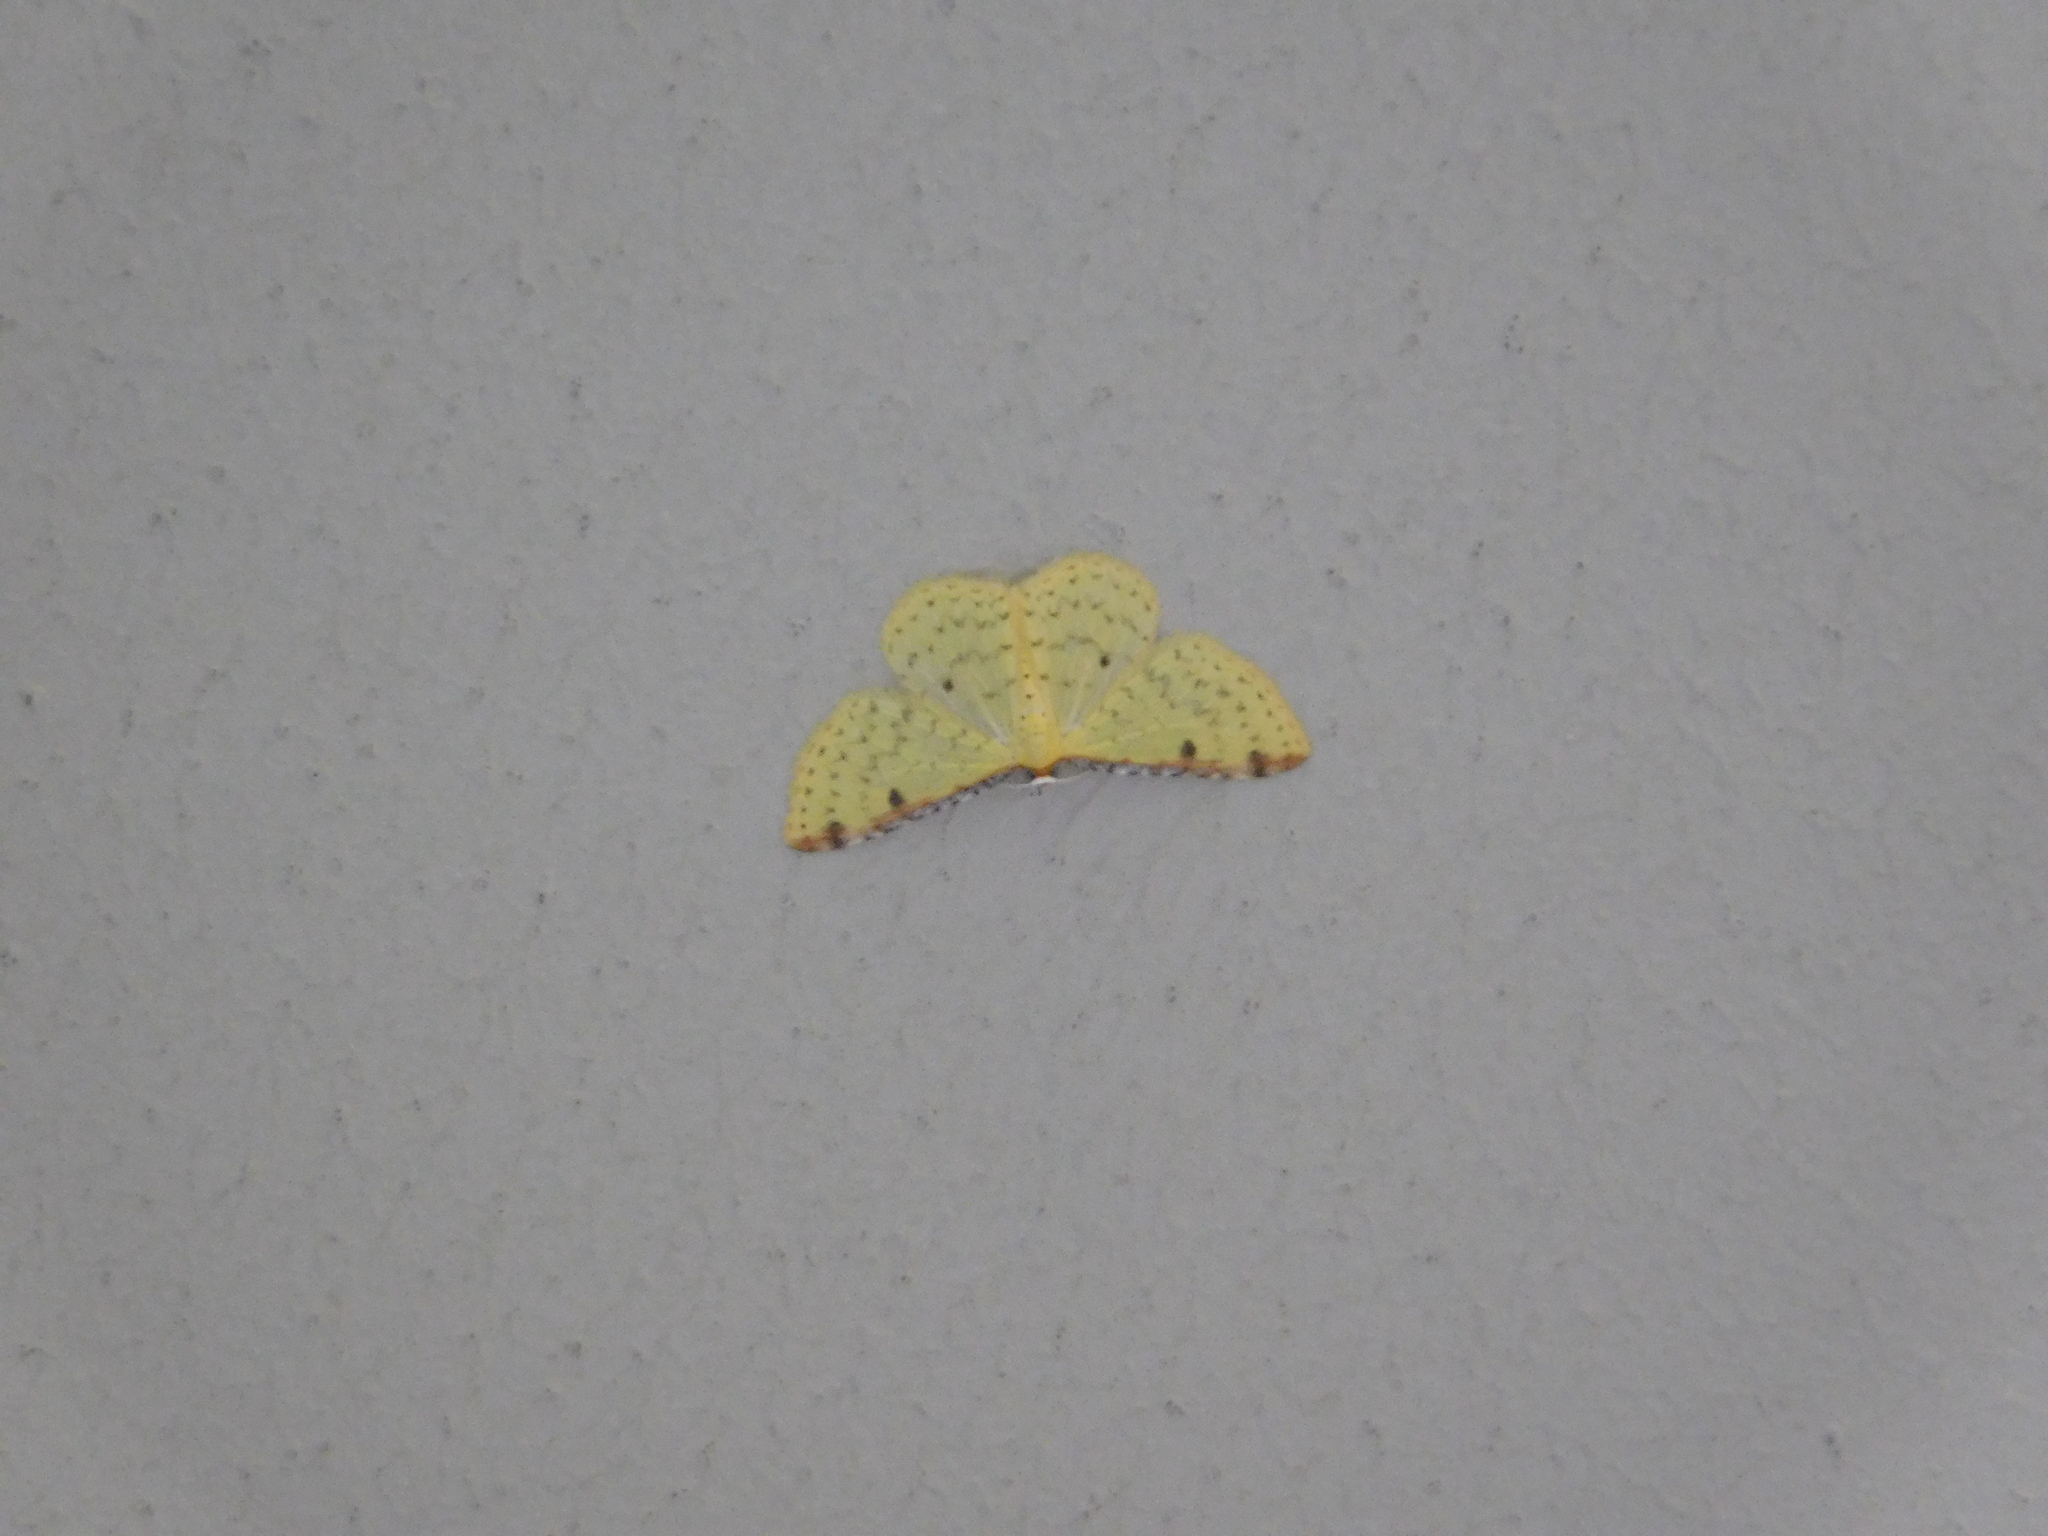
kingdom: Animalia
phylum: Arthropoda
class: Insecta
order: Lepidoptera
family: Geometridae
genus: Epiphryne
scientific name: Epiphryne undosata
